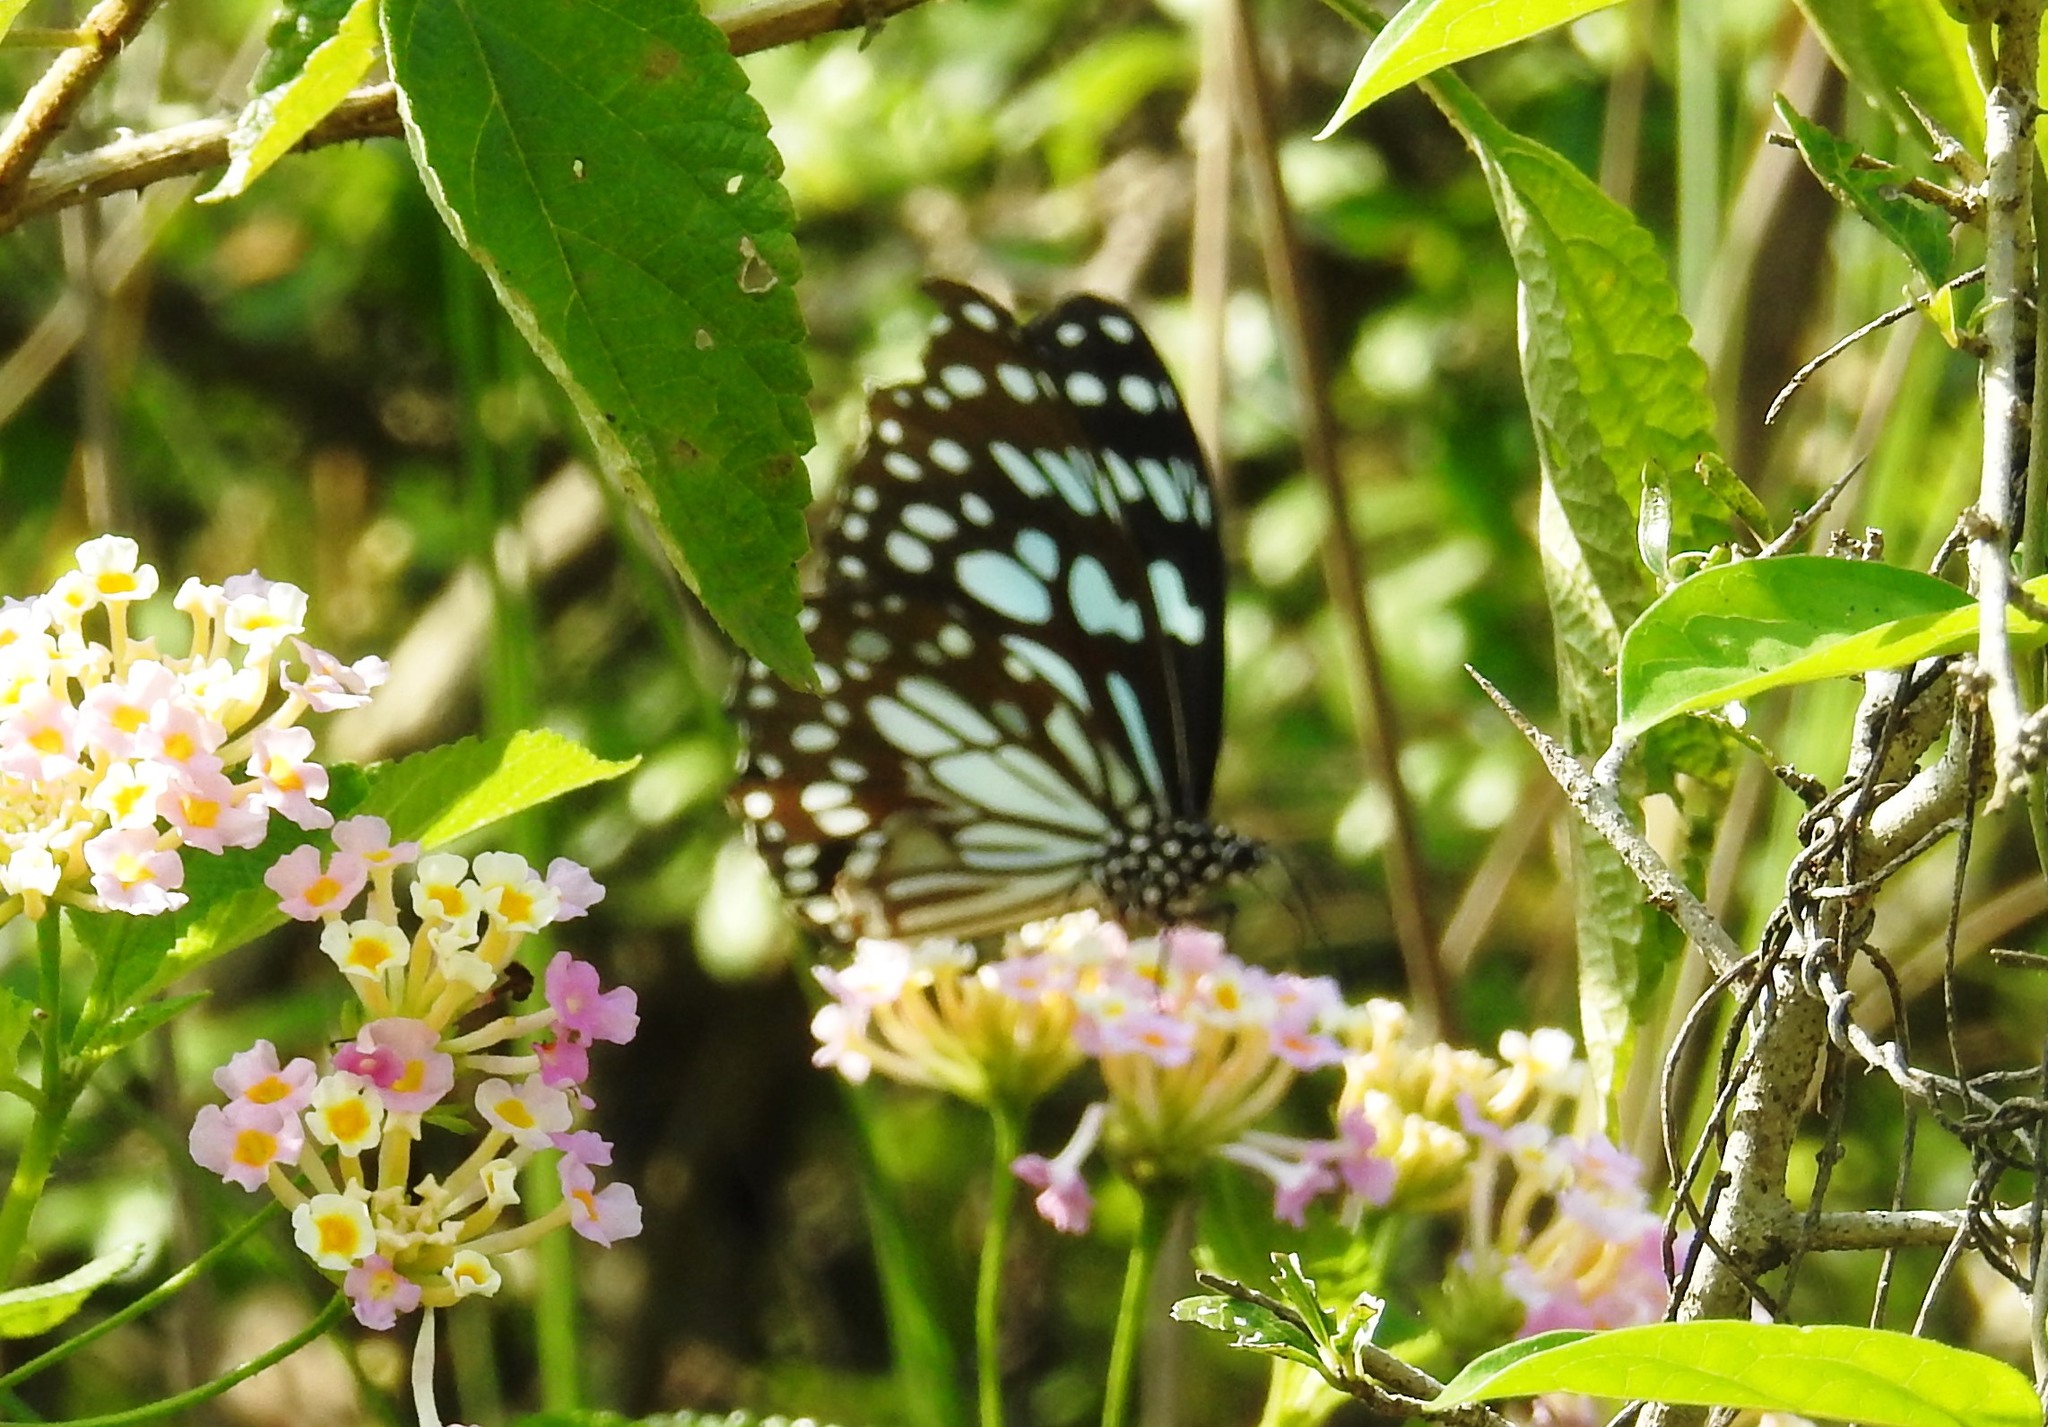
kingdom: Animalia
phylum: Arthropoda
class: Insecta
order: Lepidoptera
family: Nymphalidae
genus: Tirumala
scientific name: Tirumala limniace
